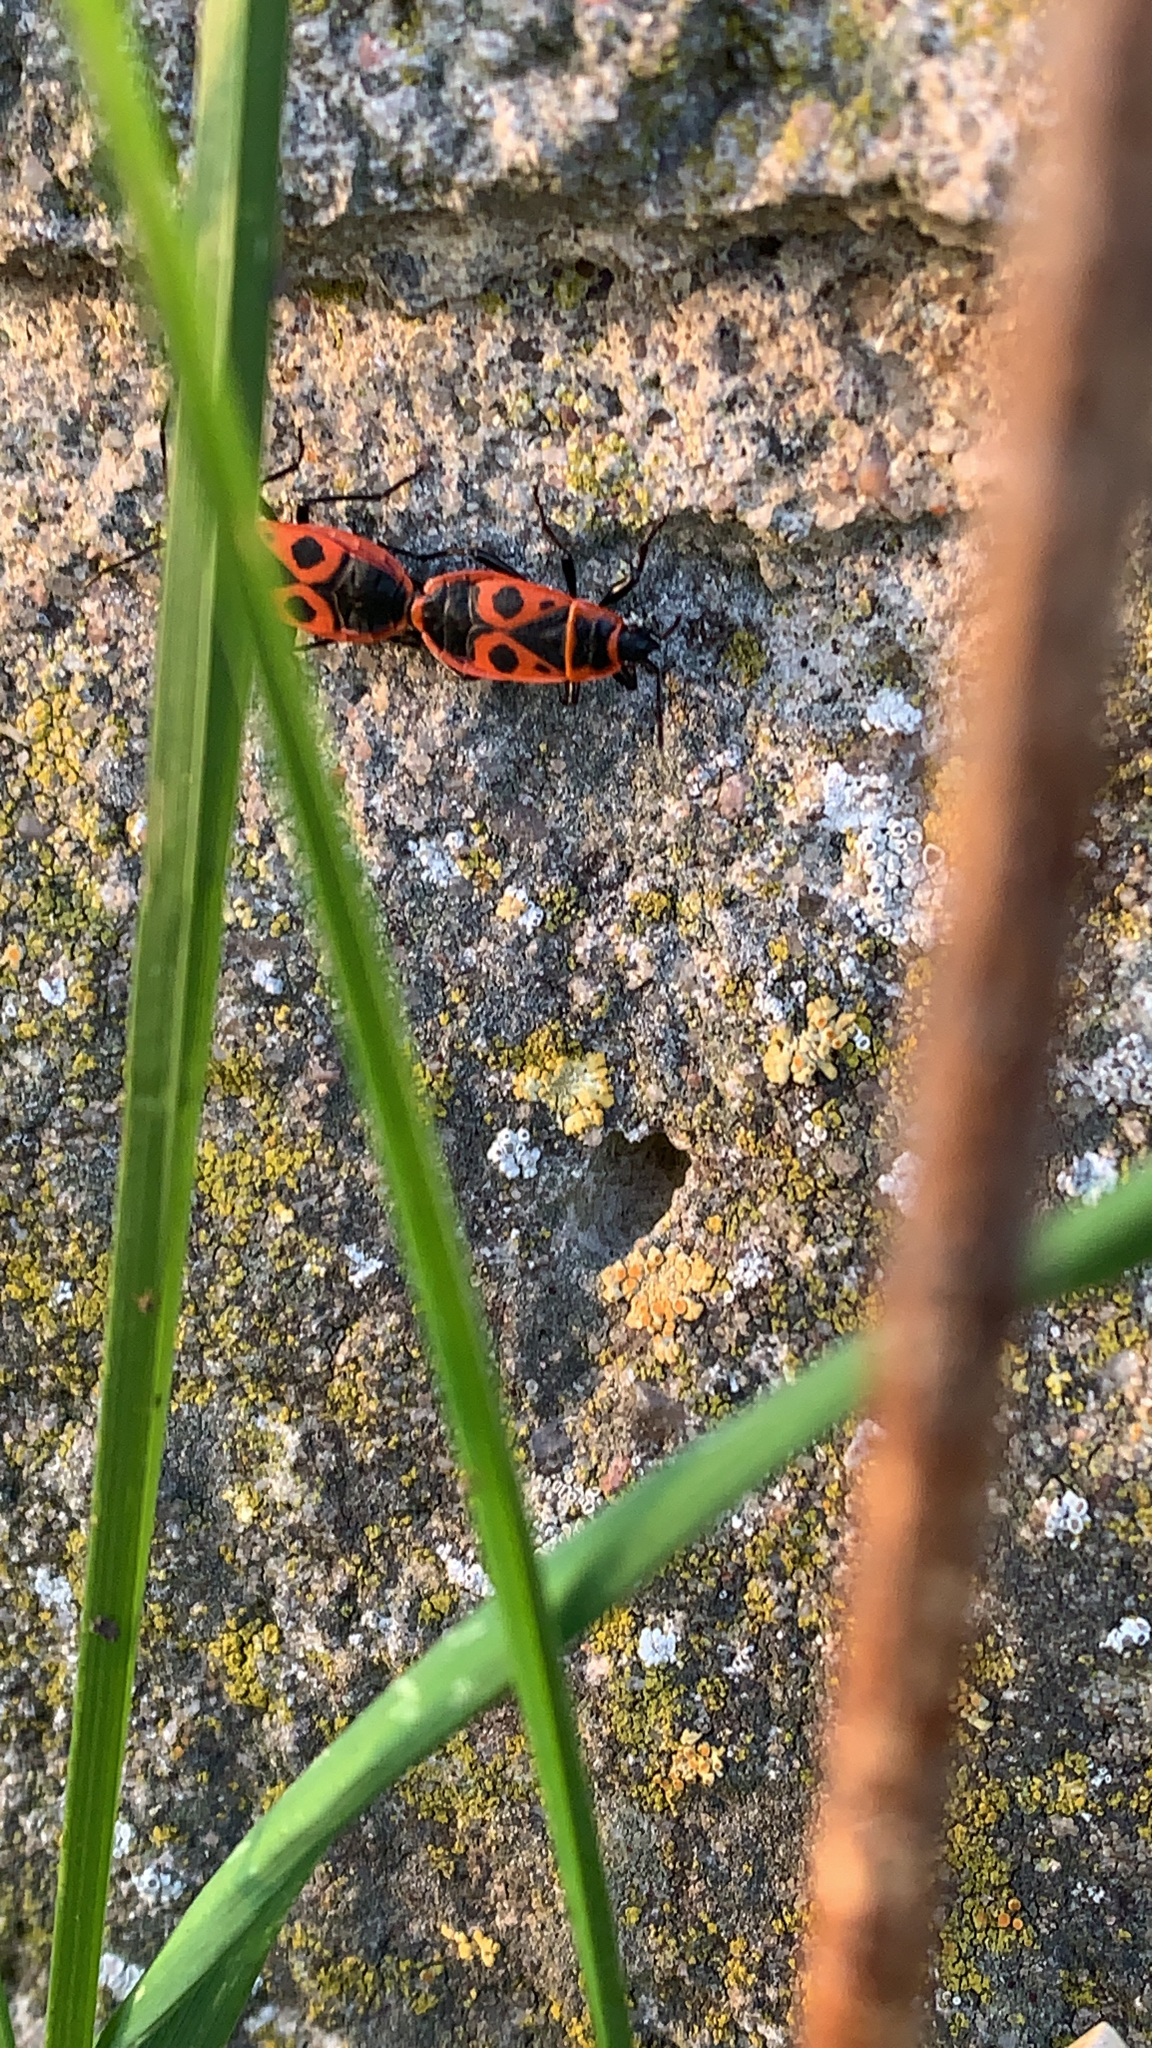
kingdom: Animalia
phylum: Arthropoda
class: Insecta
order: Hemiptera
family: Pyrrhocoridae
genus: Pyrrhocoris
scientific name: Pyrrhocoris apterus
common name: Firebug
